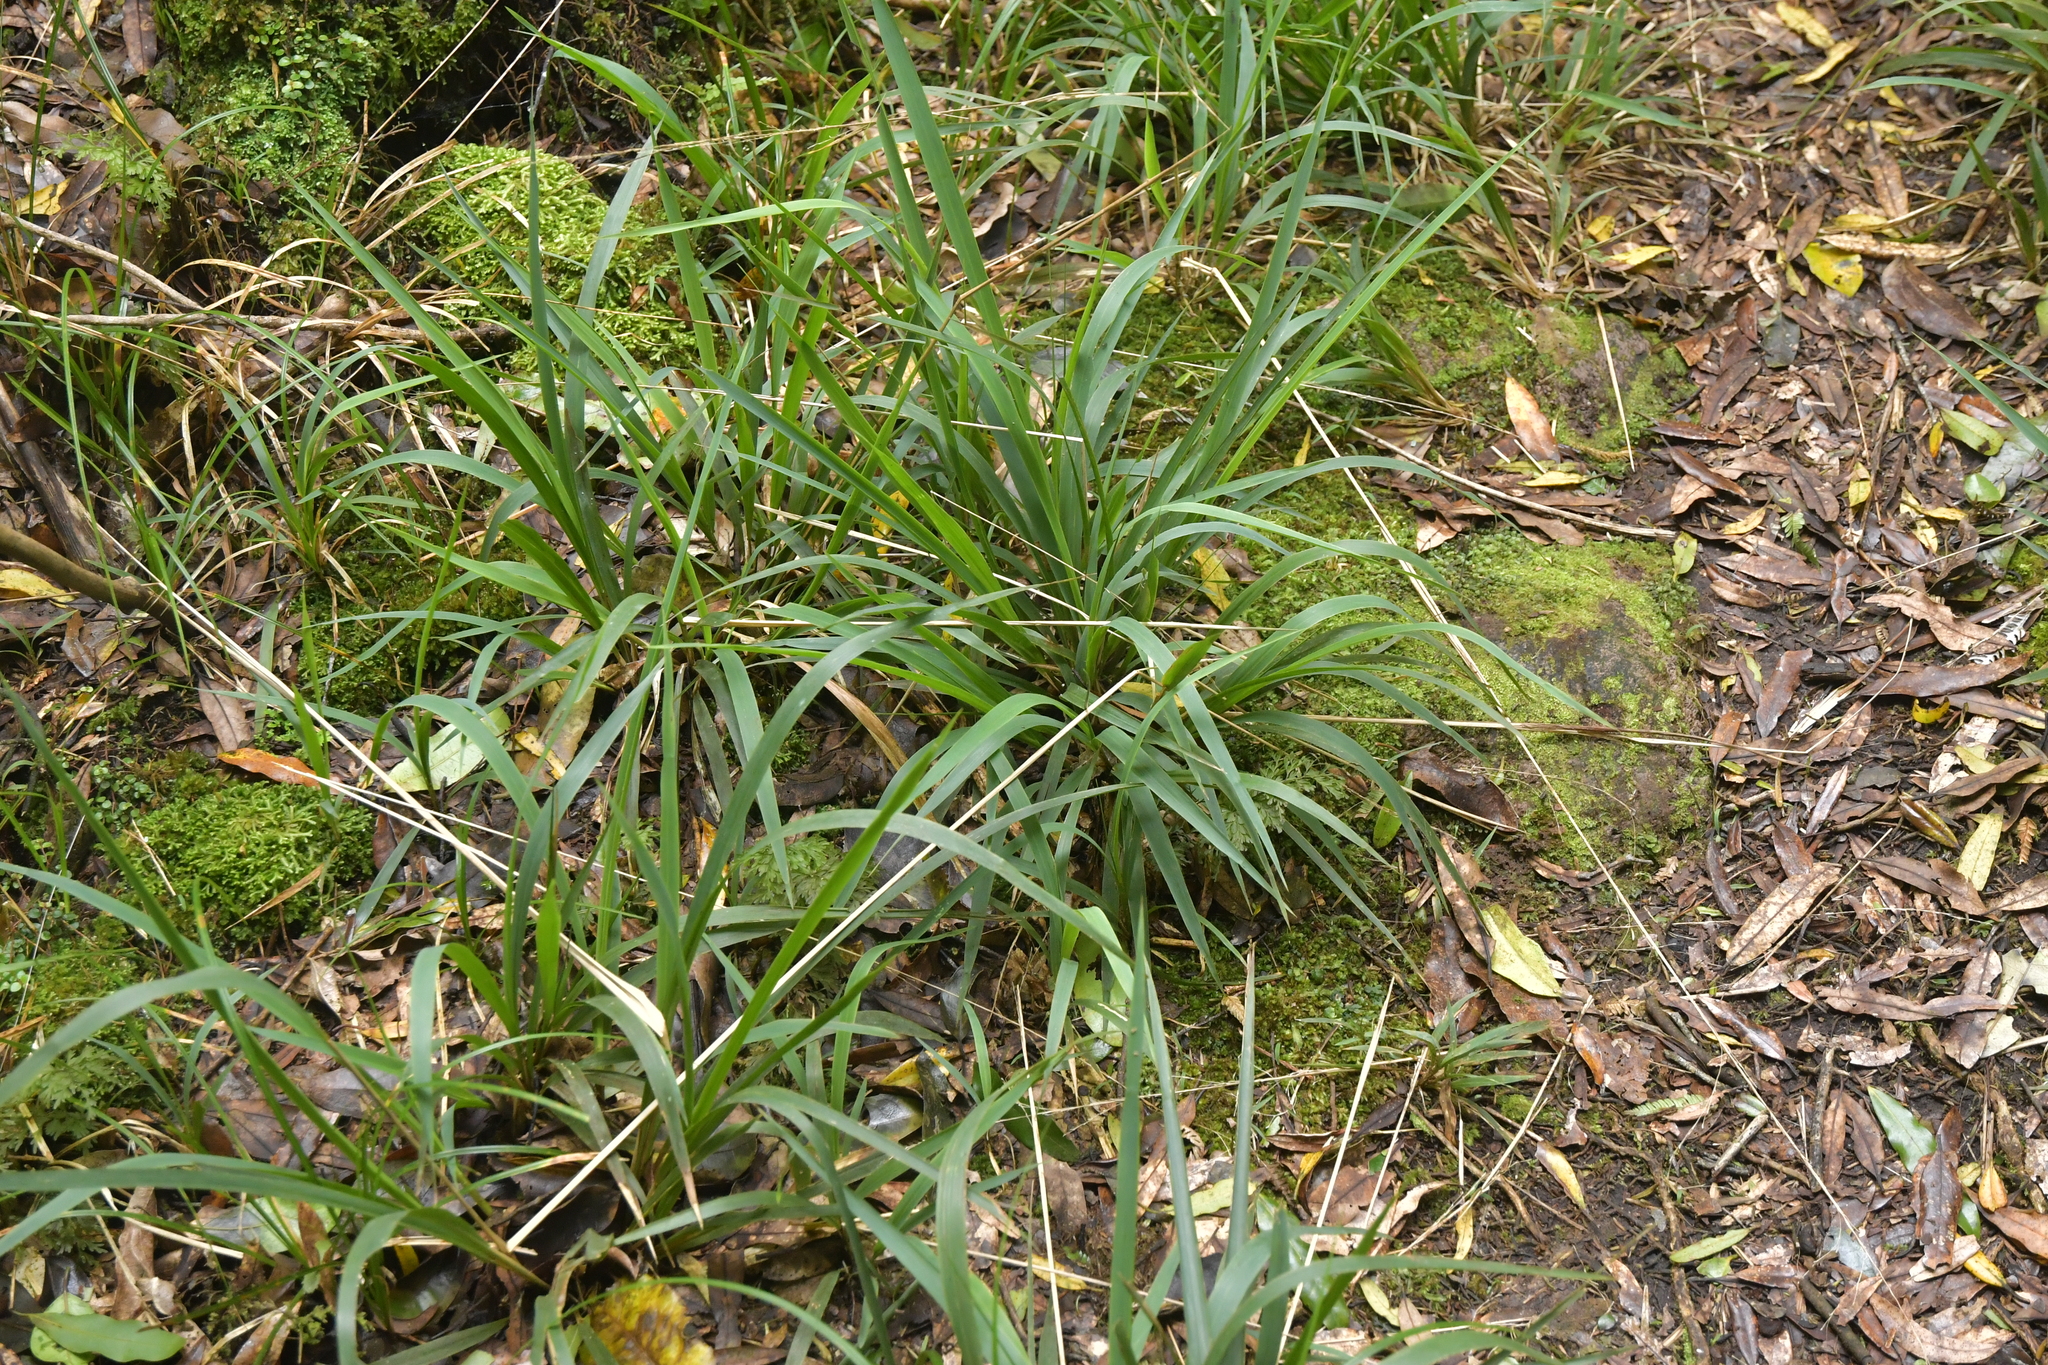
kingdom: Plantae
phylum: Tracheophyta
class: Liliopsida
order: Poales
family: Poaceae
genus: Ehrharta
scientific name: Ehrharta diplax
